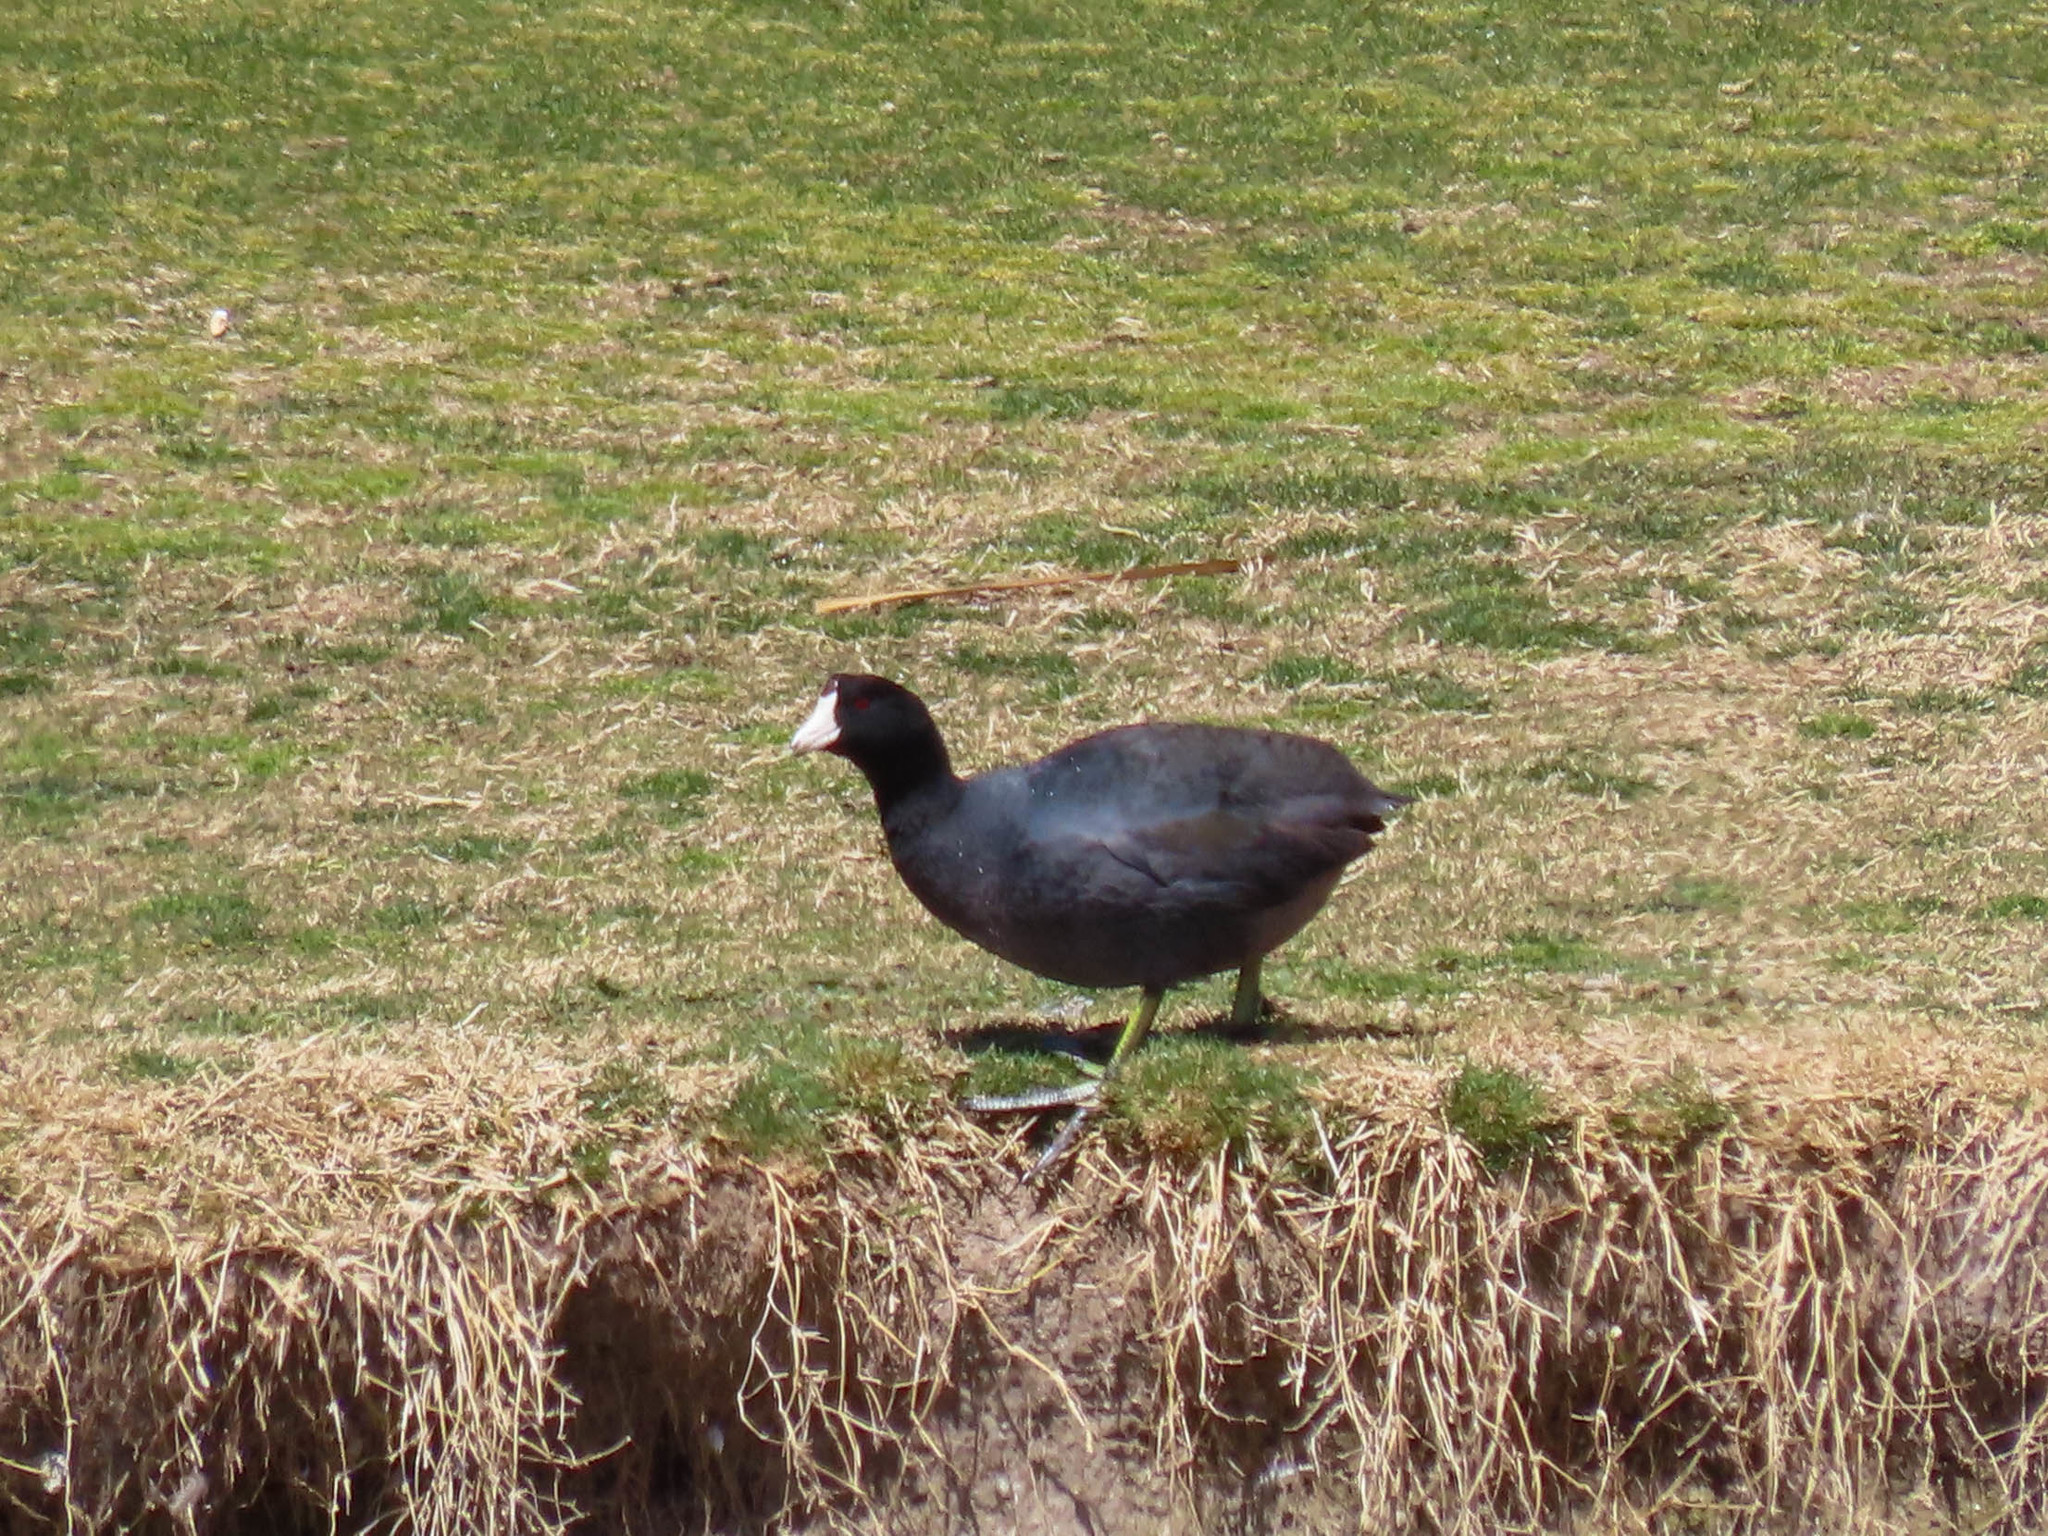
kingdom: Animalia
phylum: Chordata
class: Aves
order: Gruiformes
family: Rallidae
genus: Fulica
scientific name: Fulica americana
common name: American coot
